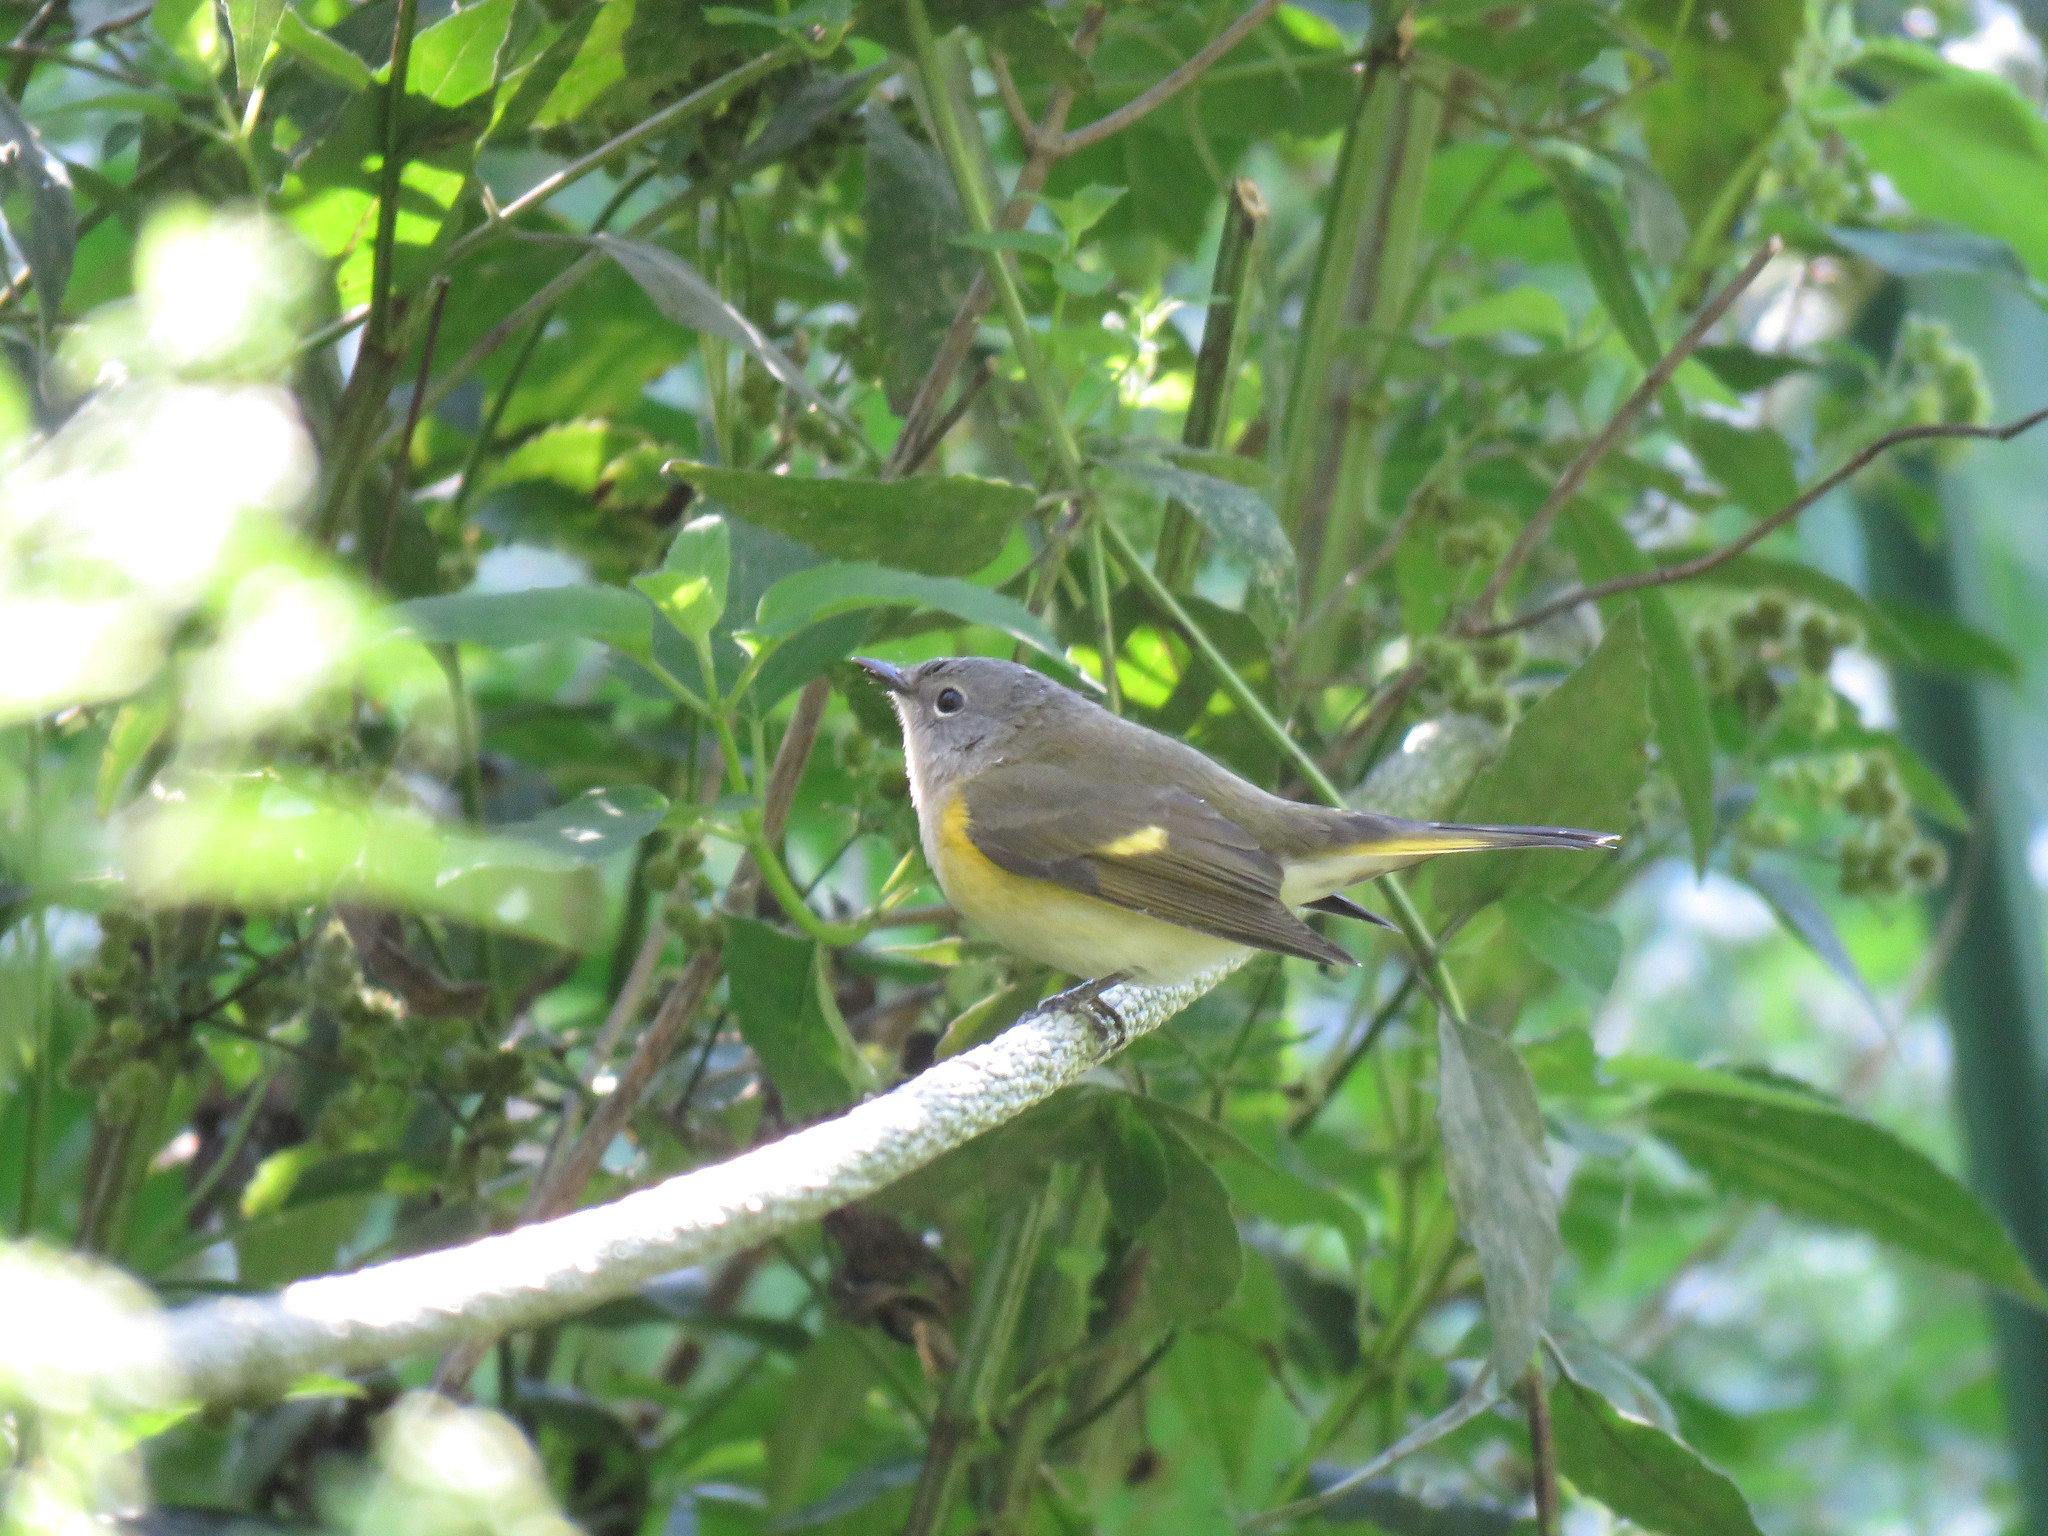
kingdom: Animalia
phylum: Chordata
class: Aves
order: Passeriformes
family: Parulidae
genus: Setophaga
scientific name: Setophaga ruticilla
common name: American redstart
